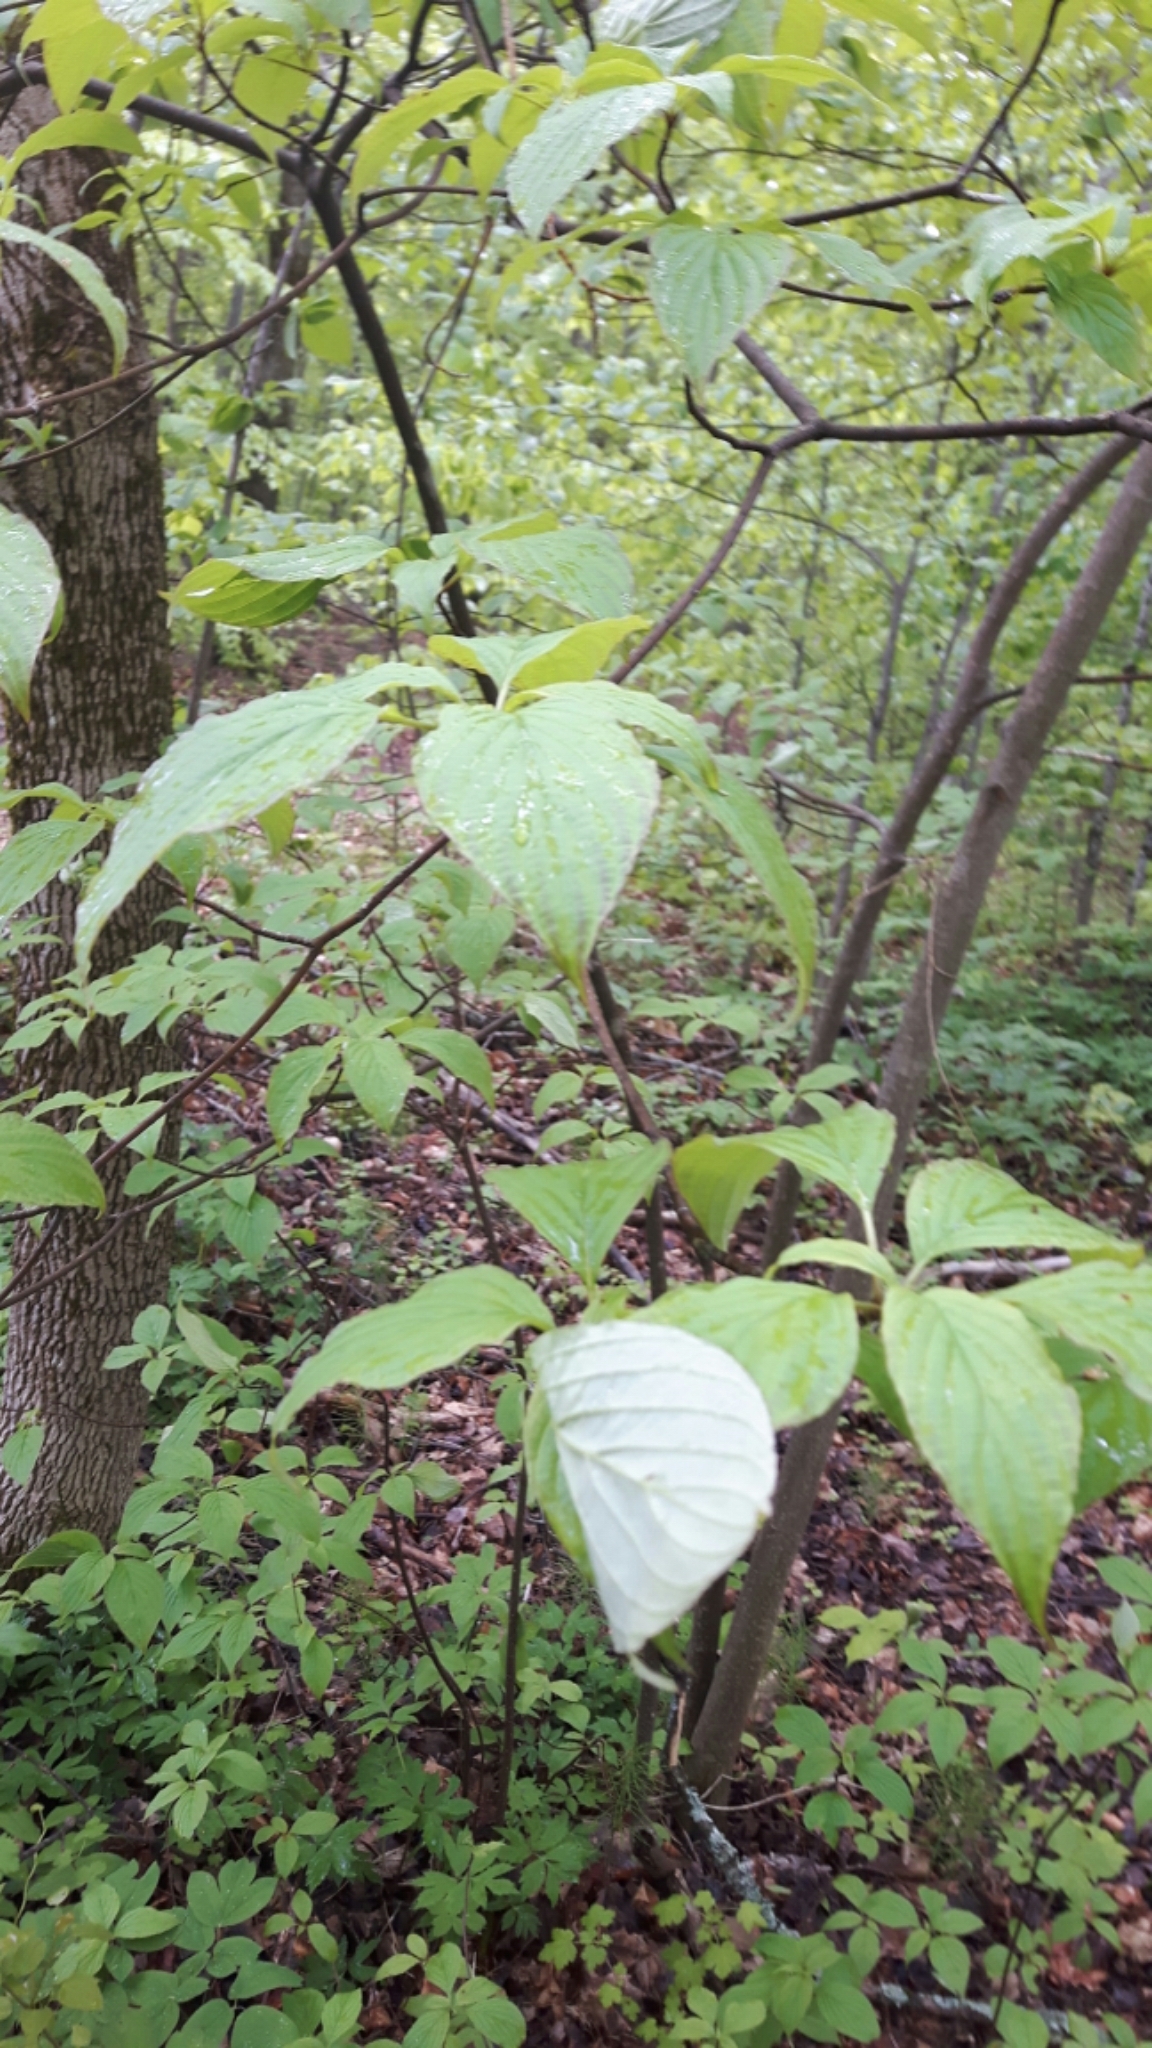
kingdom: Plantae
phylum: Tracheophyta
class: Magnoliopsida
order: Cornales
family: Cornaceae
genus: Cornus
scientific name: Cornus alternifolia
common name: Pagoda dogwood
